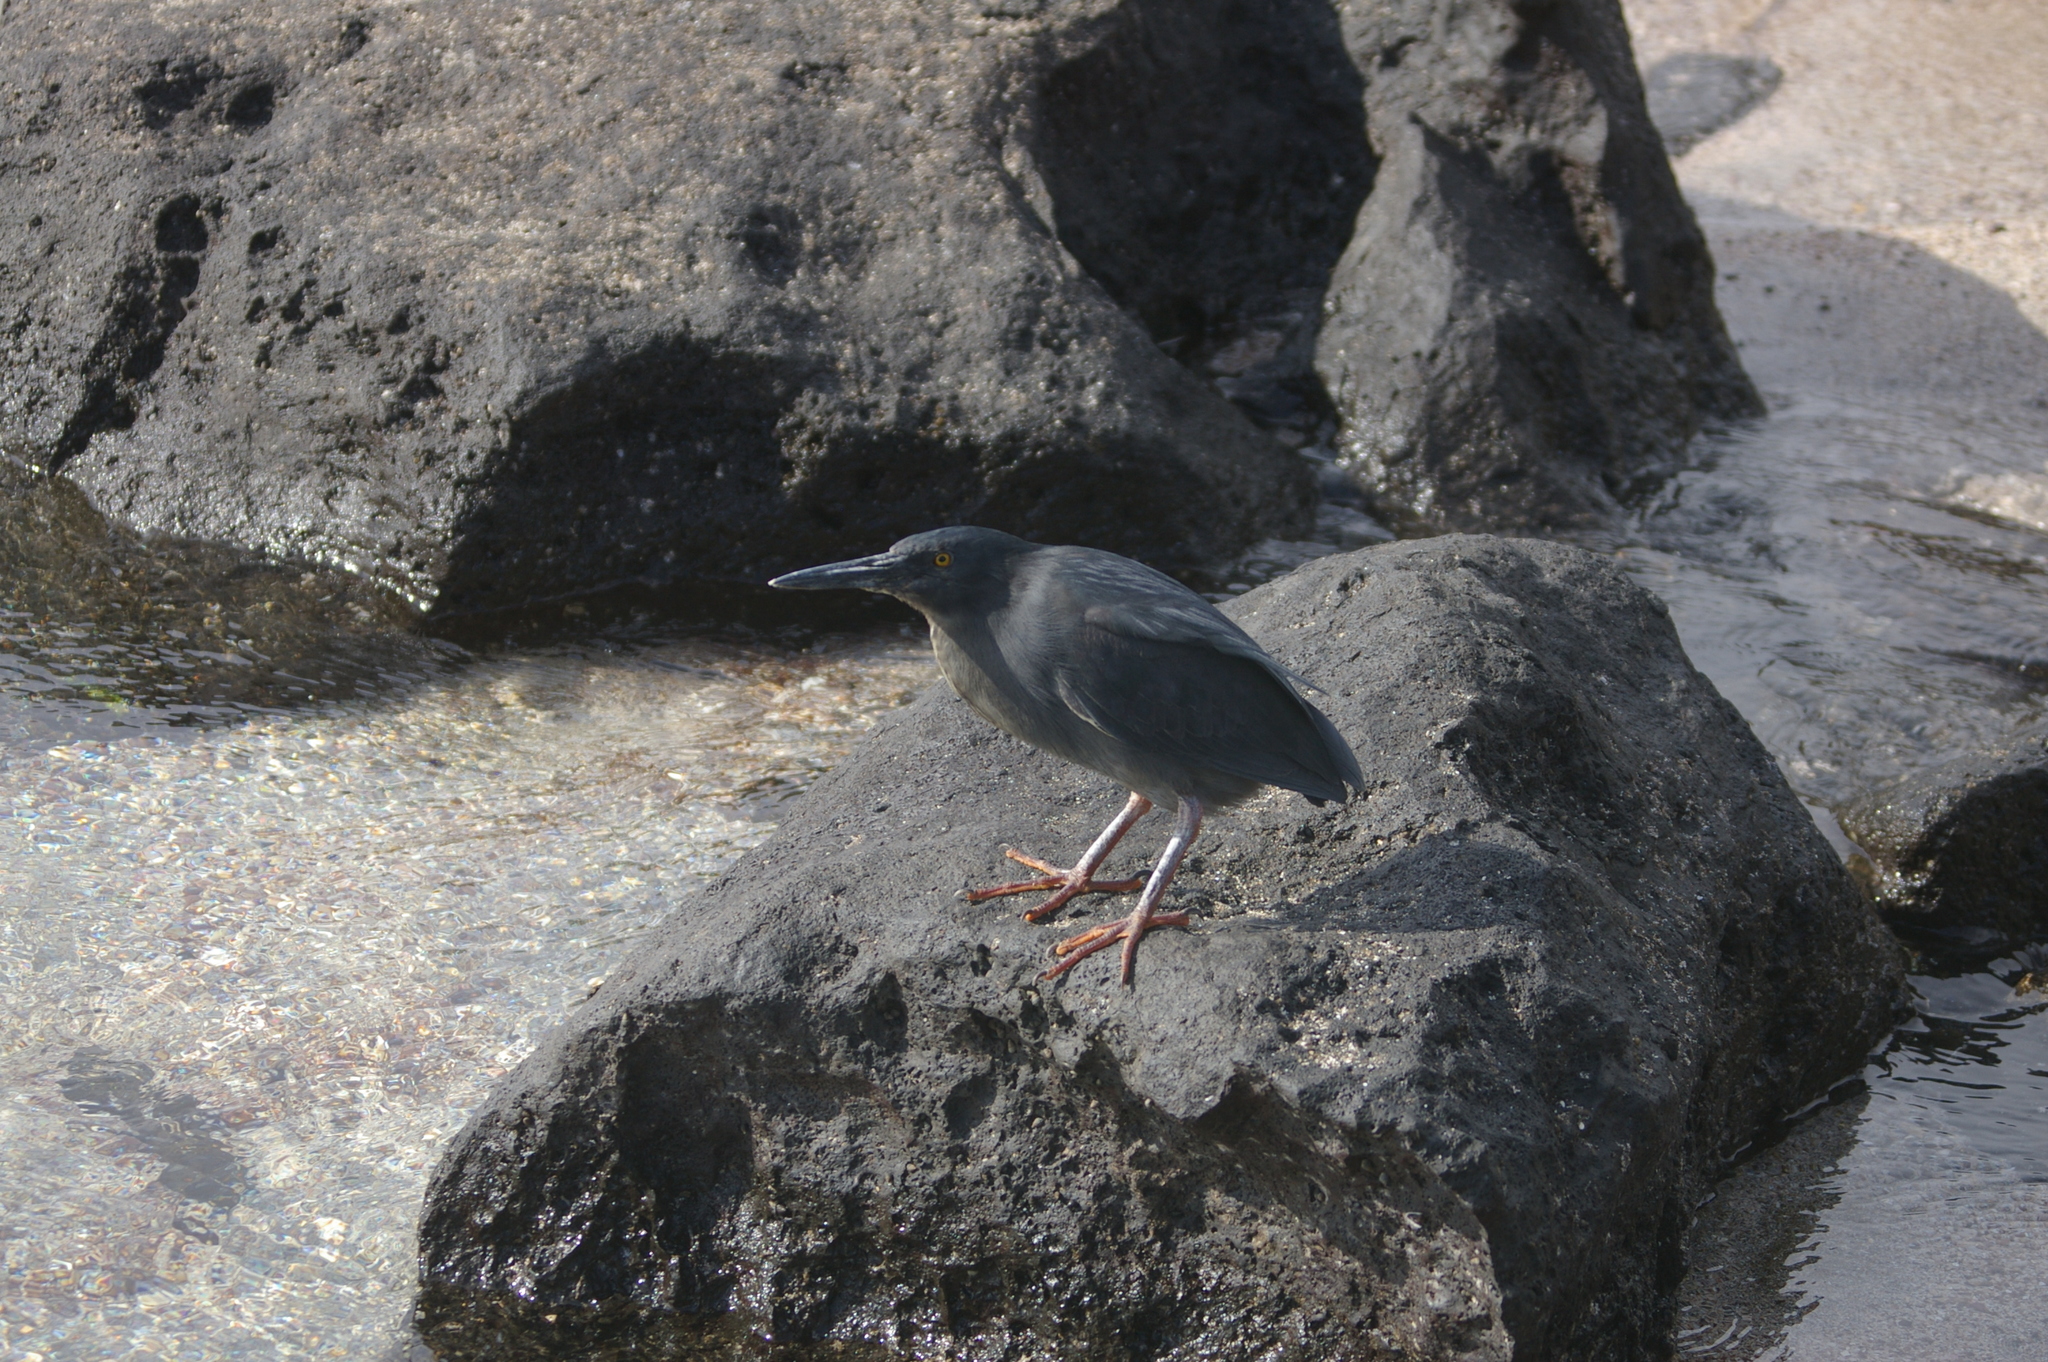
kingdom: Animalia
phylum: Chordata
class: Aves
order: Pelecaniformes
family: Ardeidae
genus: Butorides
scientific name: Butorides striata
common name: Striated heron
